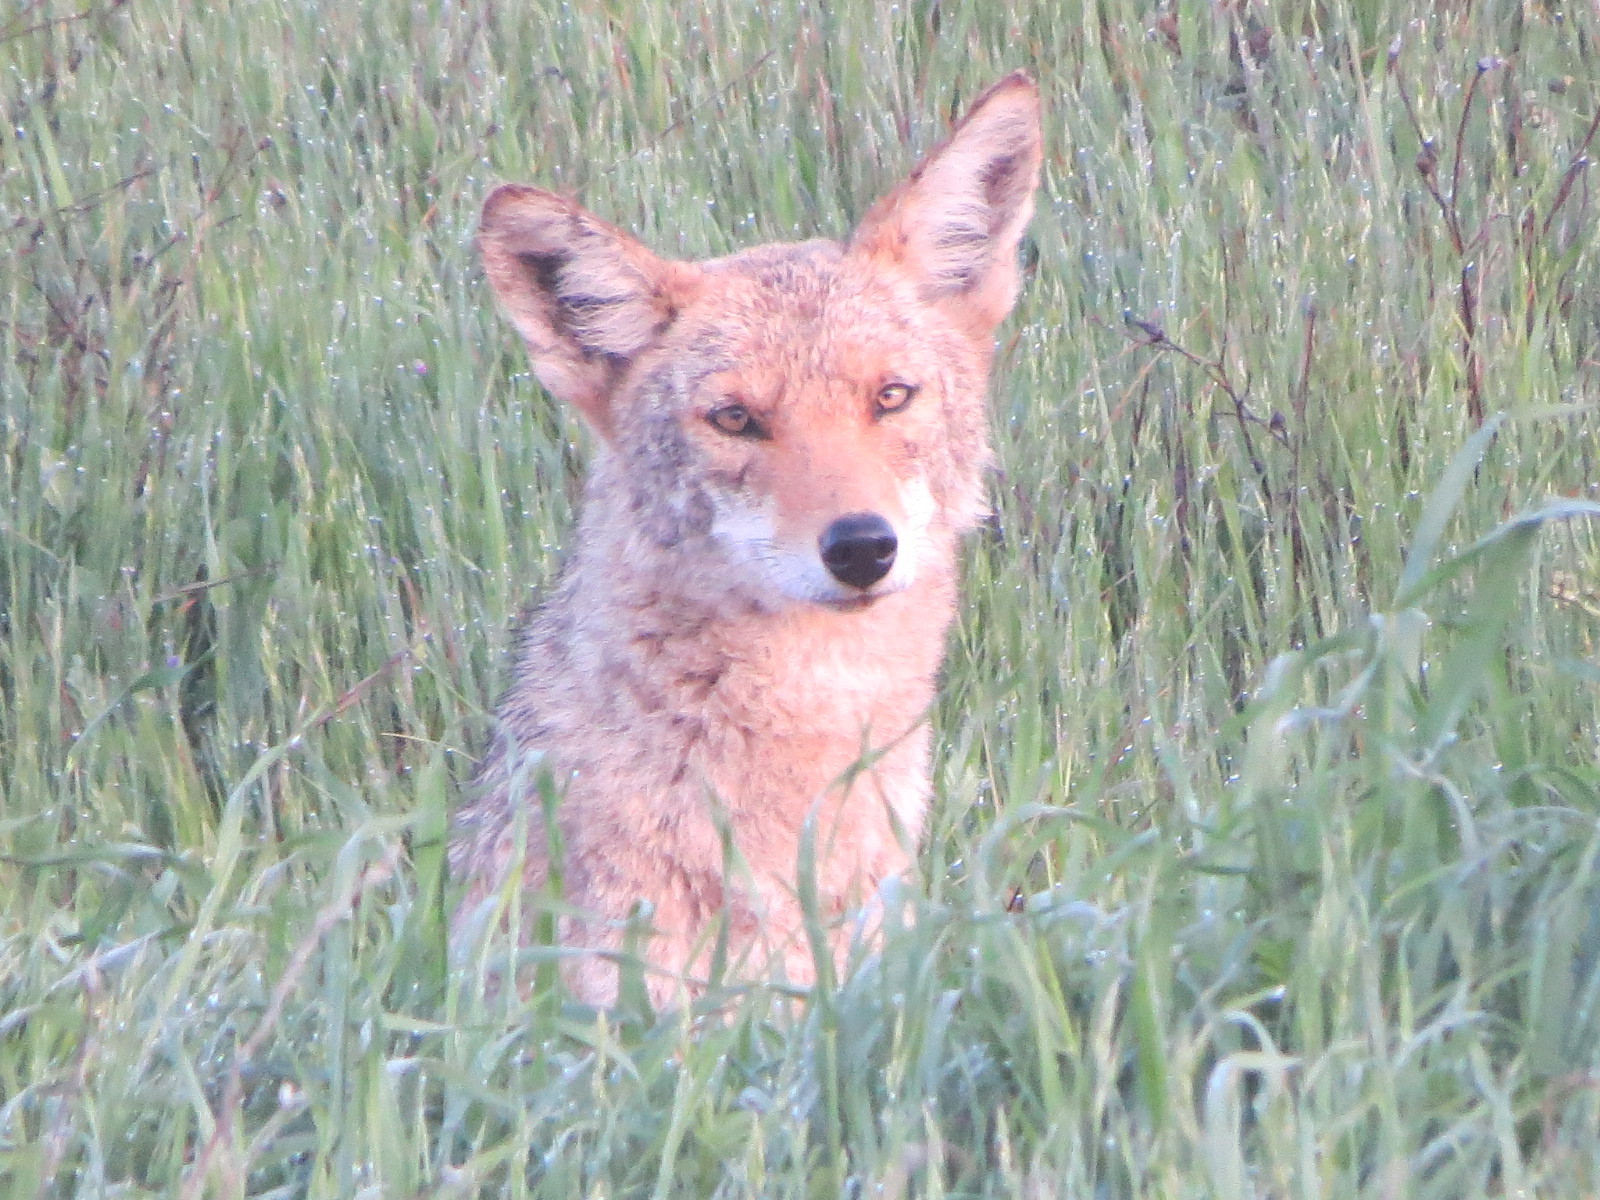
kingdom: Animalia
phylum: Chordata
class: Mammalia
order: Carnivora
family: Canidae
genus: Canis
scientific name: Canis latrans
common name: Coyote
